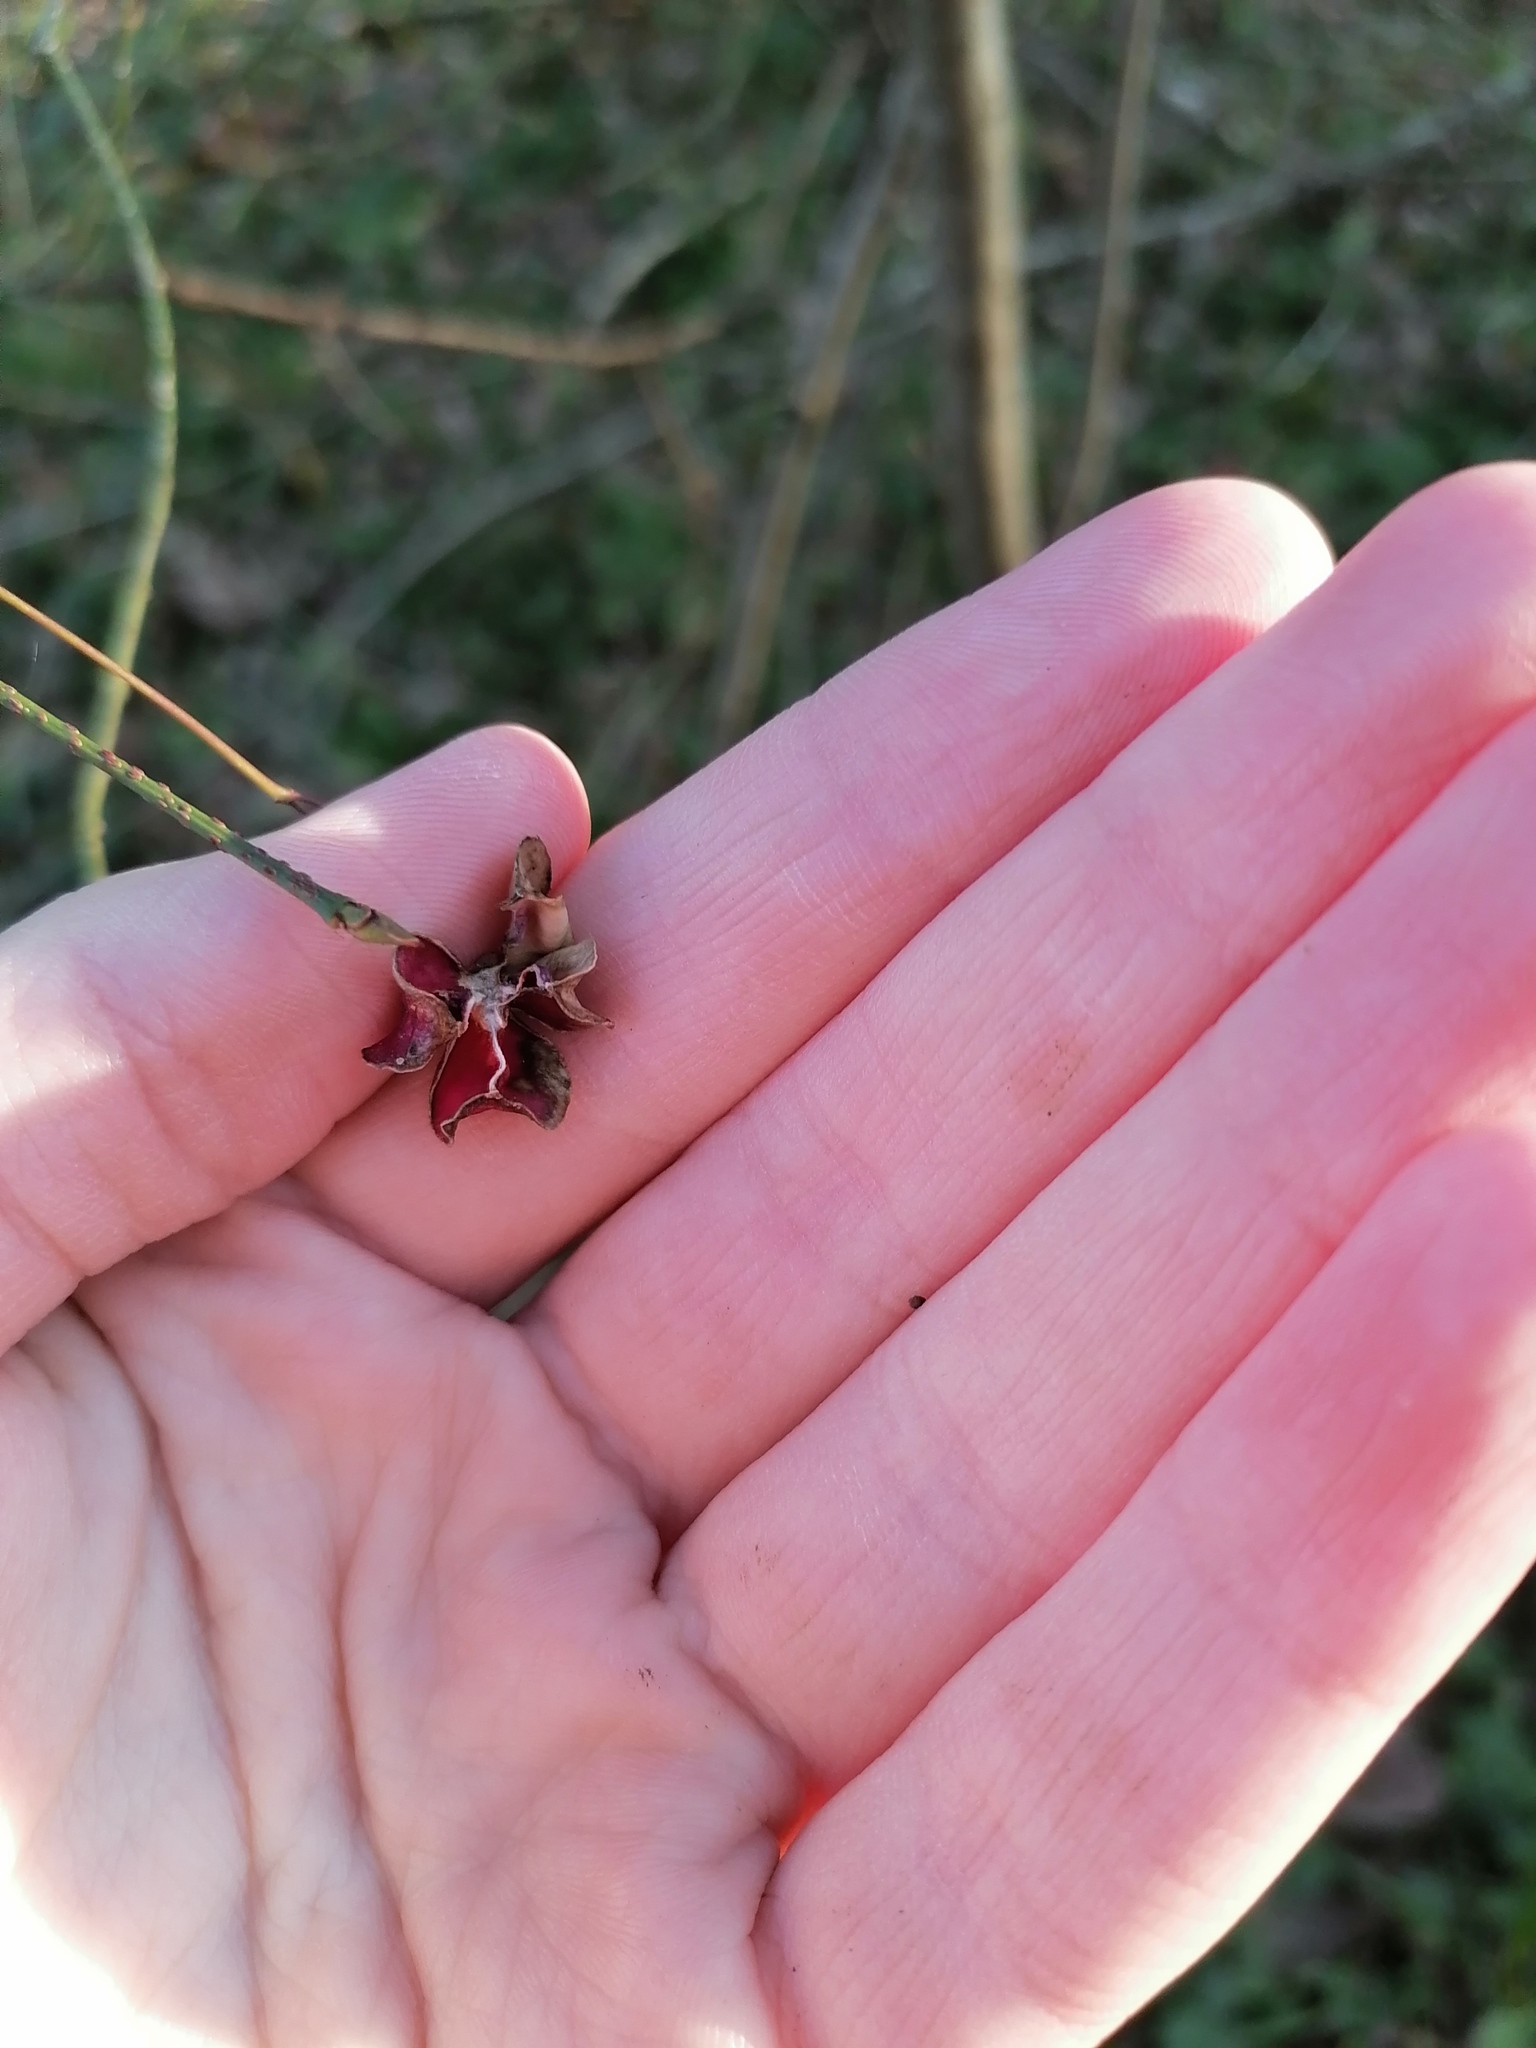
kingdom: Plantae
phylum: Tracheophyta
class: Magnoliopsida
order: Celastrales
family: Celastraceae
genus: Euonymus
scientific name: Euonymus verrucosus
